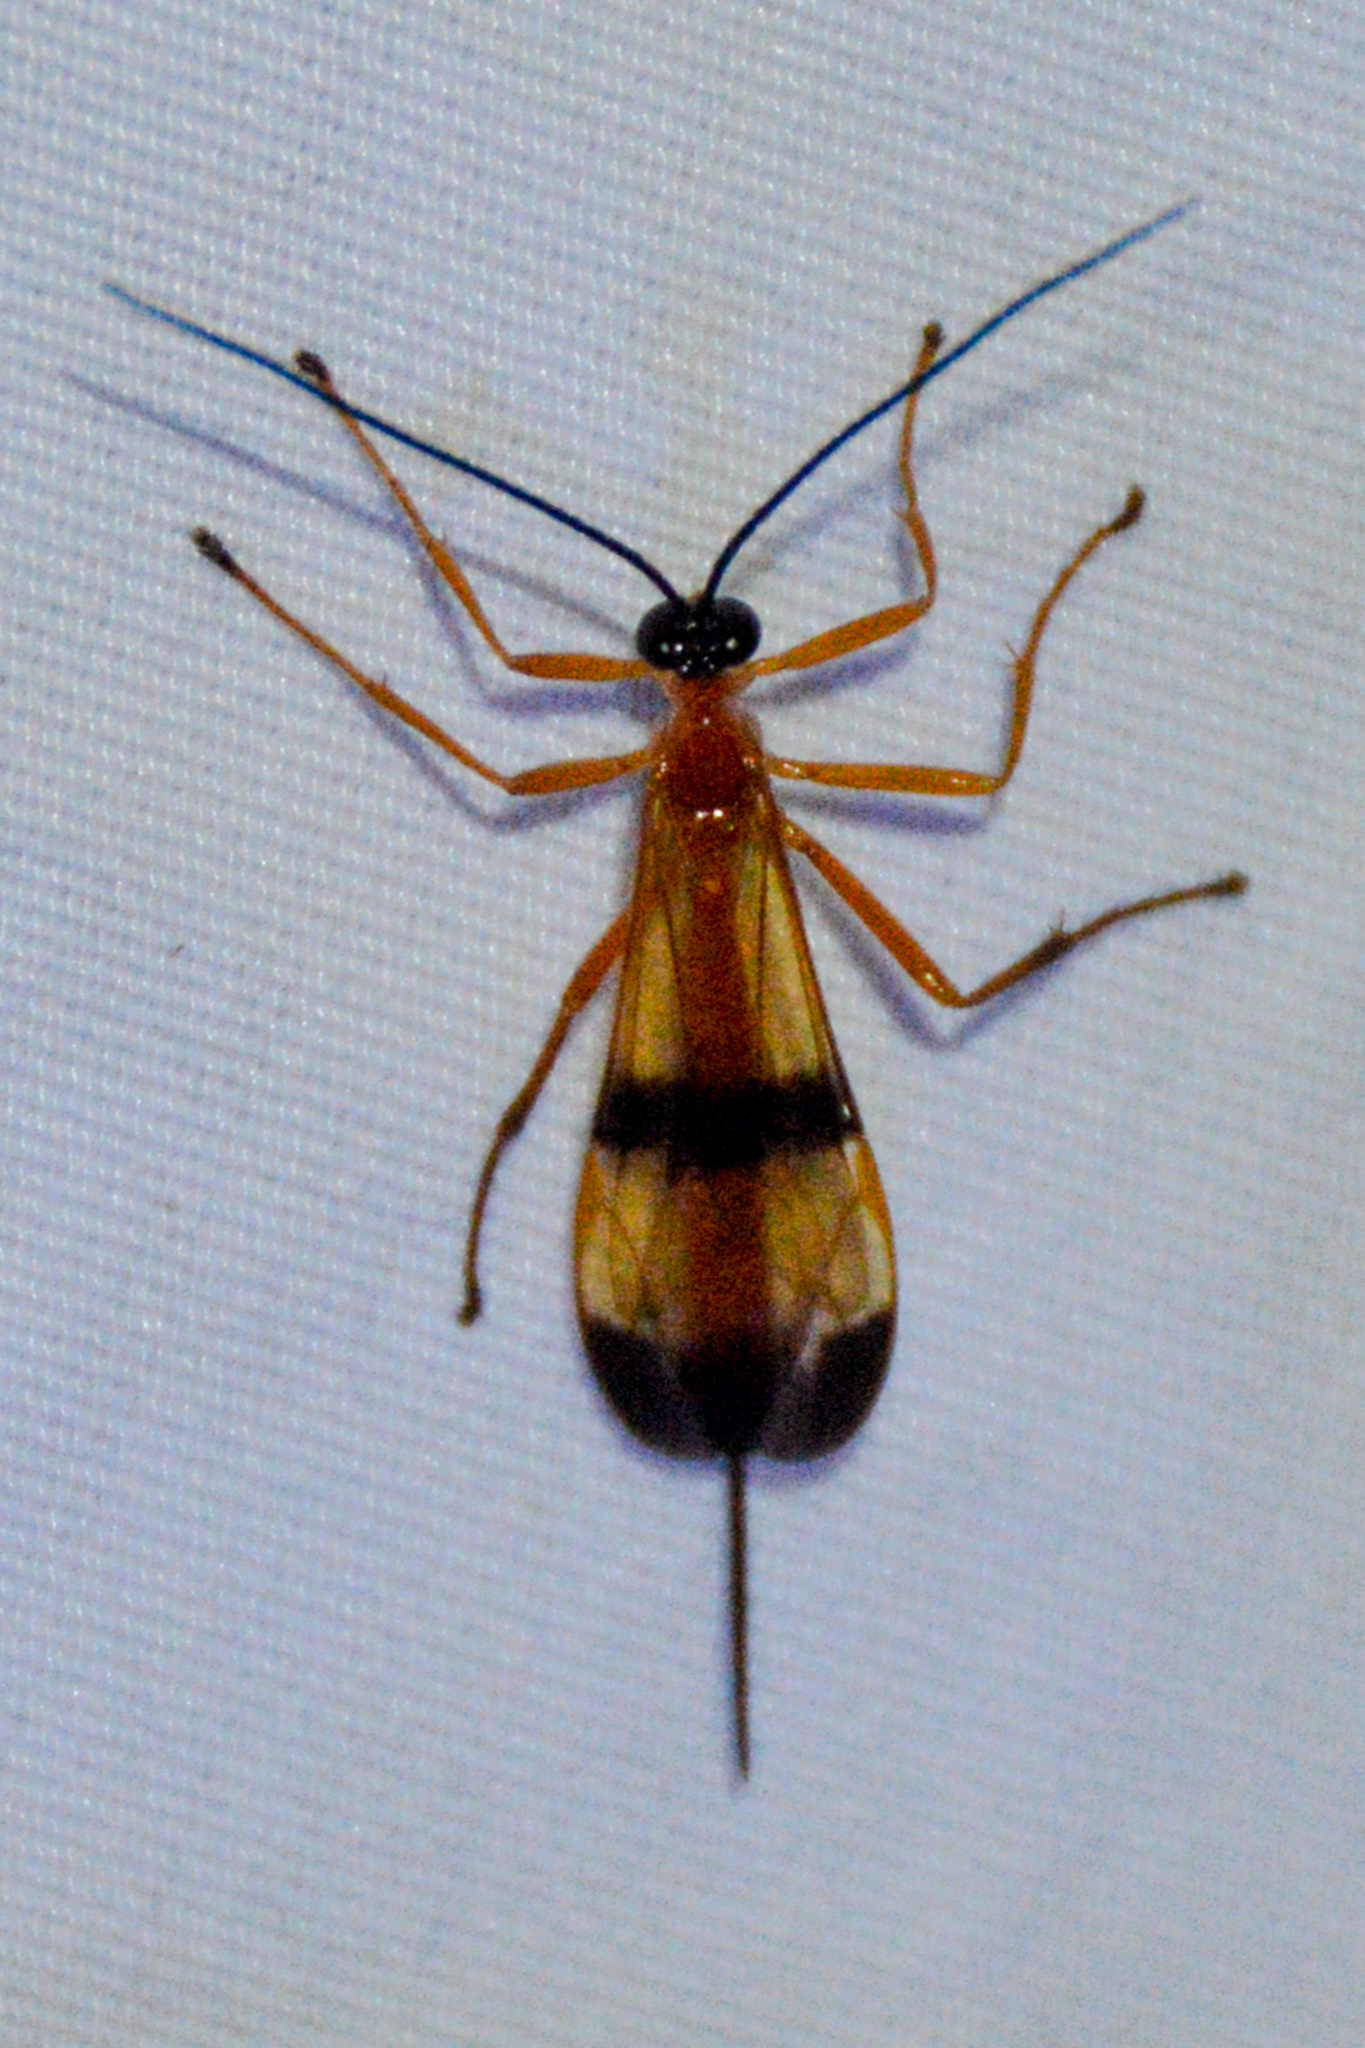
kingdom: Animalia
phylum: Arthropoda
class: Insecta
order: Hymenoptera
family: Ichneumonidae
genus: Acrotaphus
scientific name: Acrotaphus wiltii
